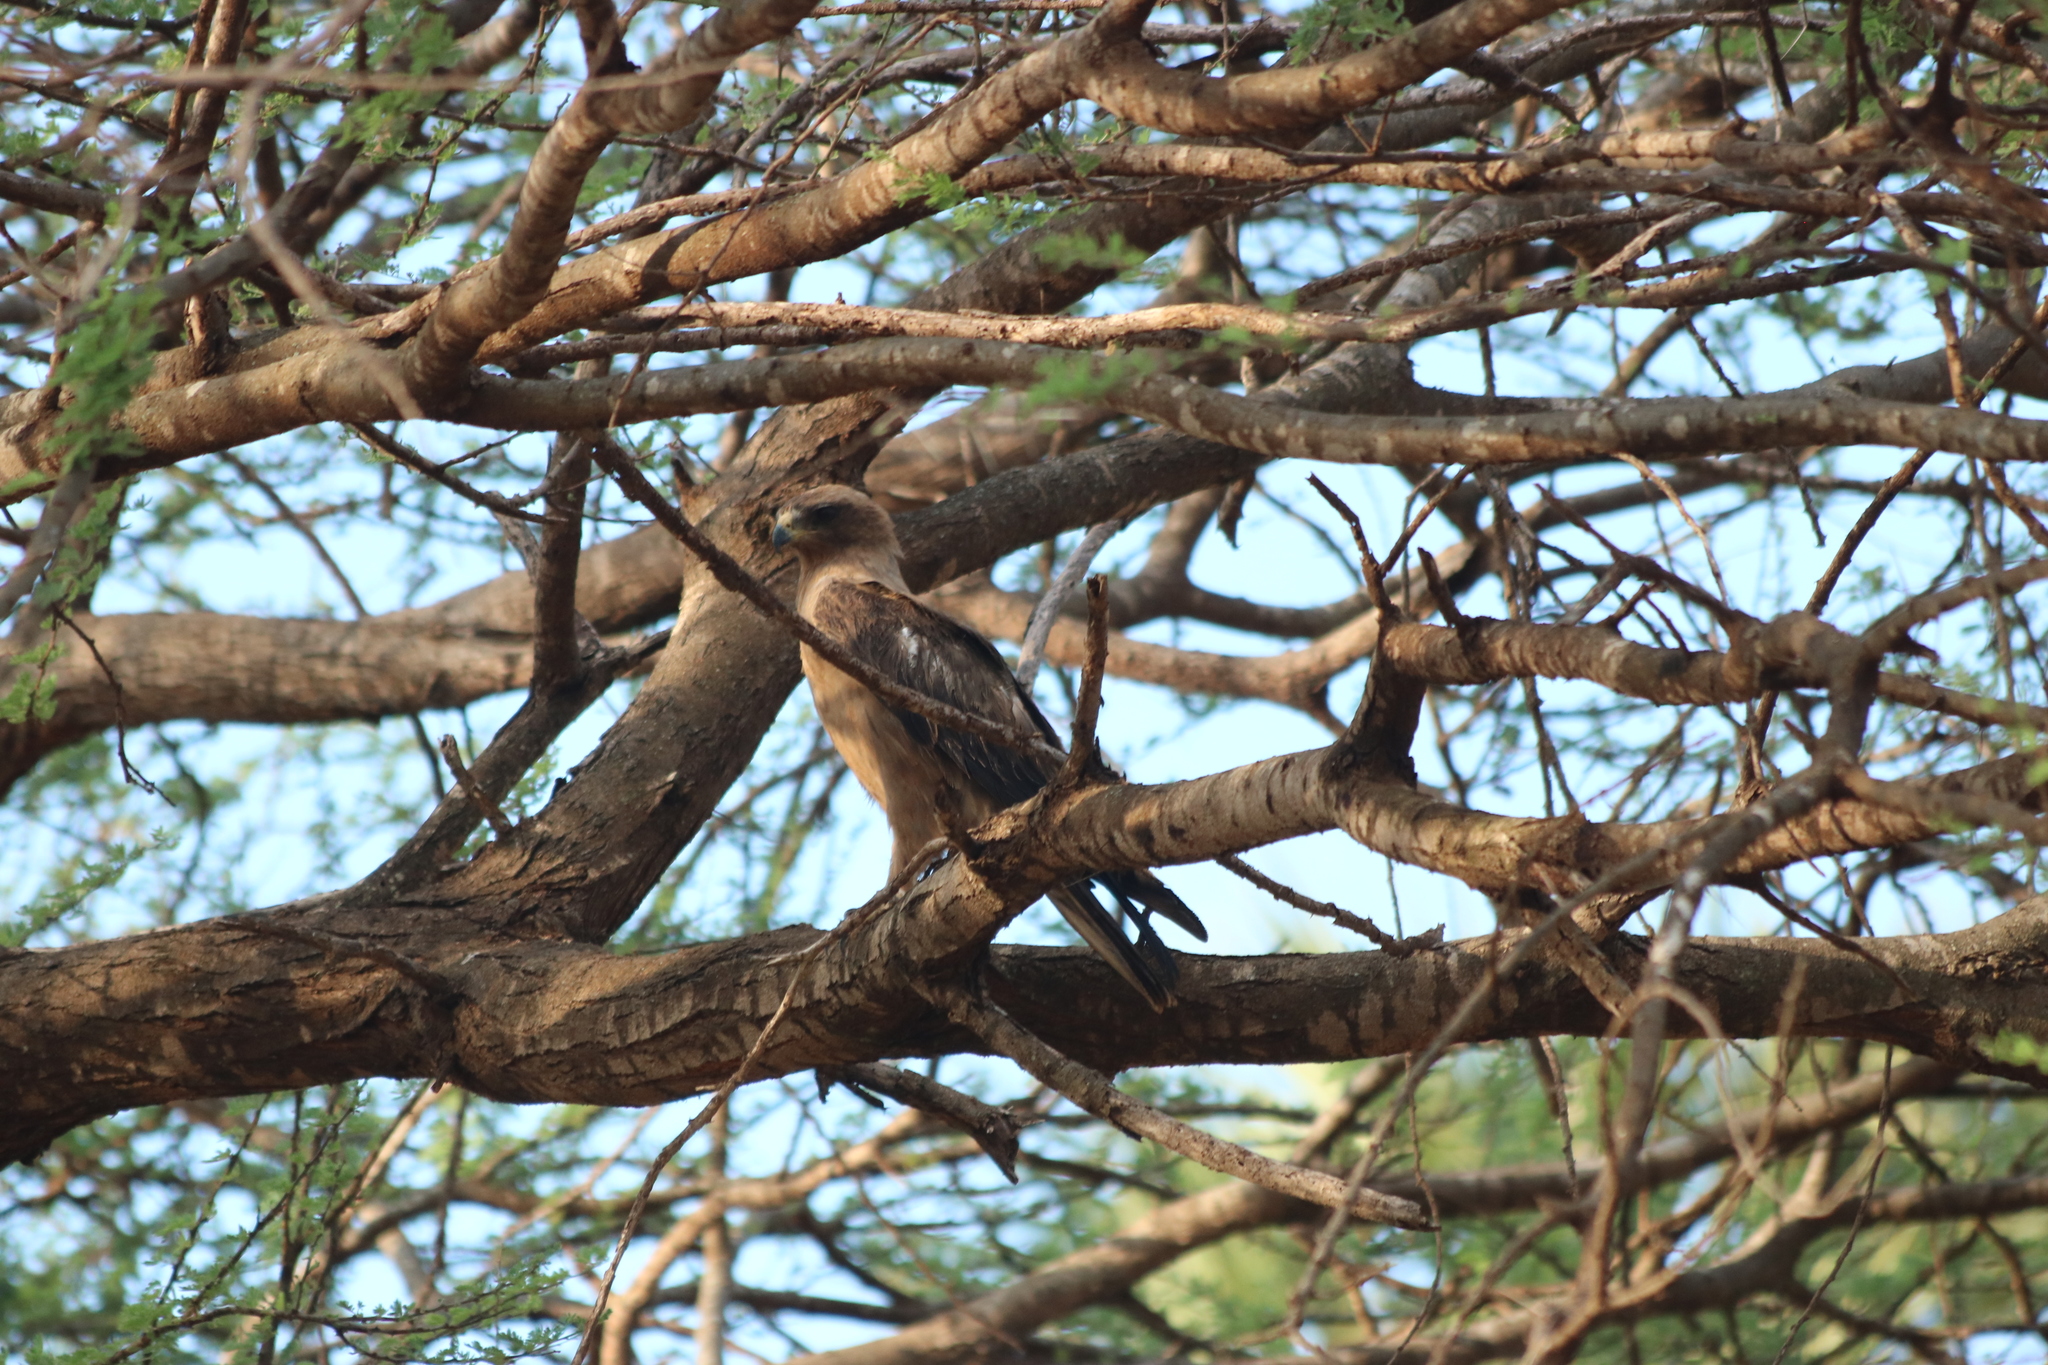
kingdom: Animalia
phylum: Chordata
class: Aves
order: Accipitriformes
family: Accipitridae
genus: Hieraaetus
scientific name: Hieraaetus pennatus
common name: Booted eagle
